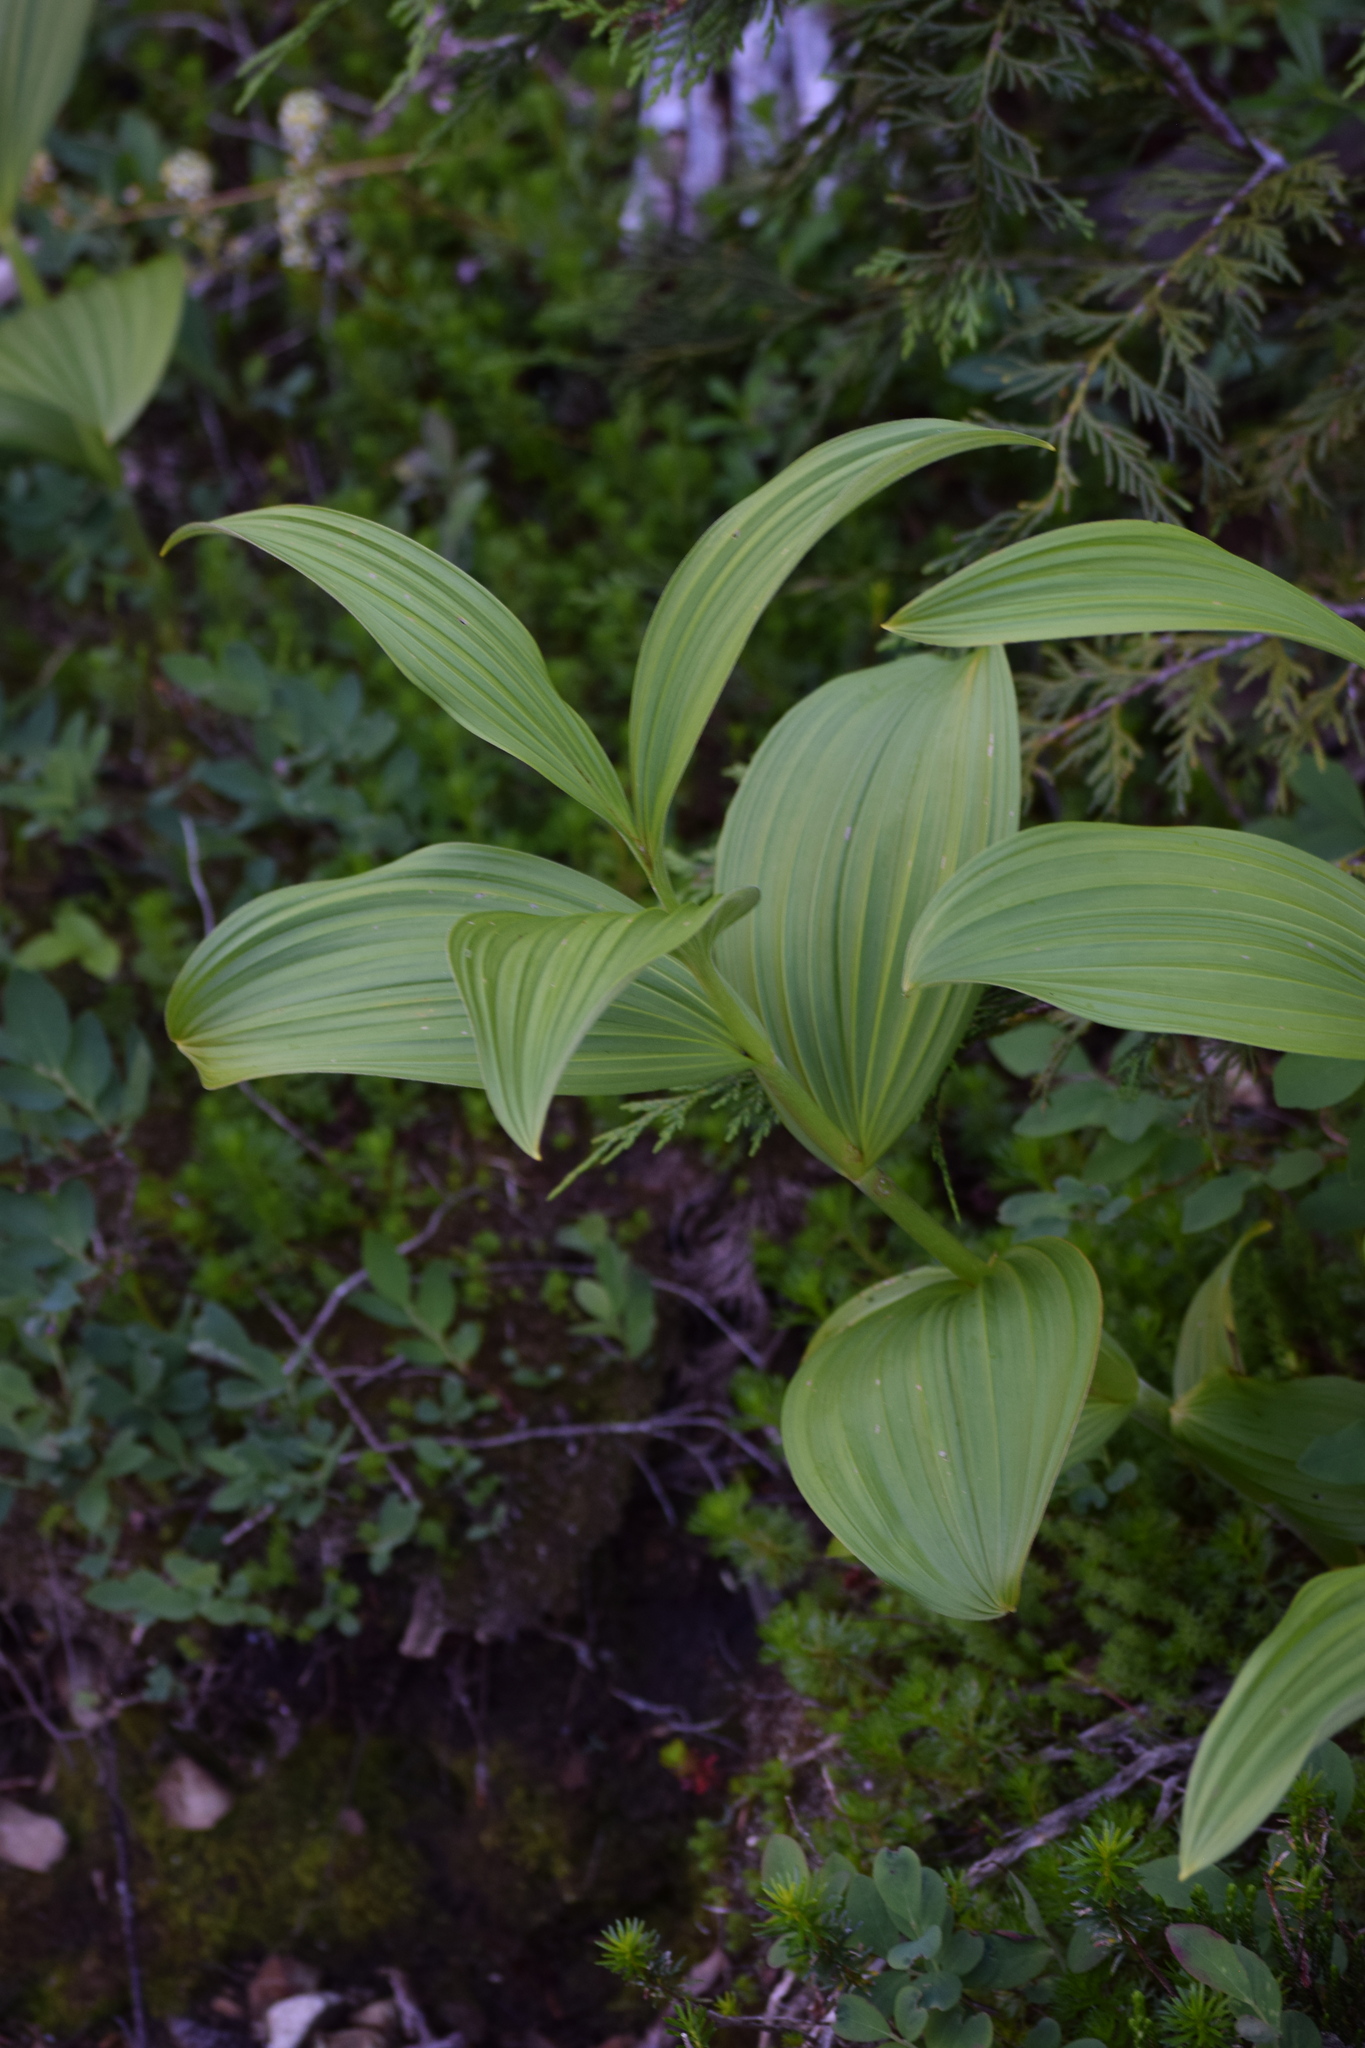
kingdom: Plantae
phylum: Tracheophyta
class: Liliopsida
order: Liliales
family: Melanthiaceae
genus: Veratrum
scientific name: Veratrum viride
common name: American false hellebore
